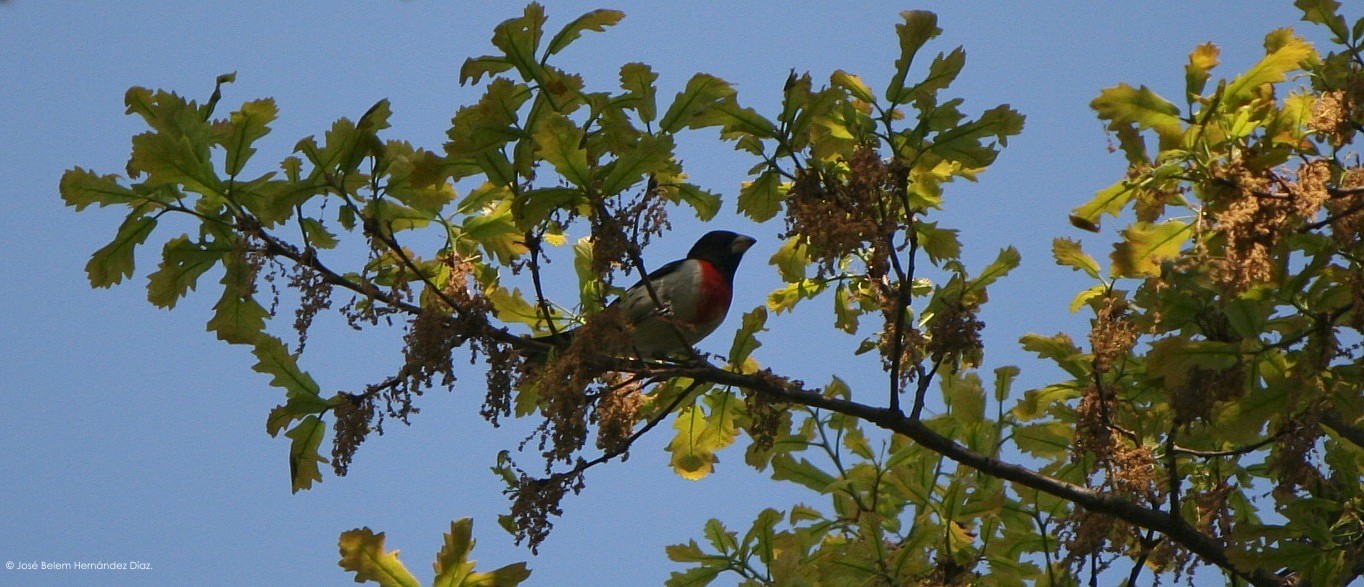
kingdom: Animalia
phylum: Chordata
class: Aves
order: Passeriformes
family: Cardinalidae
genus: Pheucticus
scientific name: Pheucticus ludovicianus
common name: Rose-breasted grosbeak
